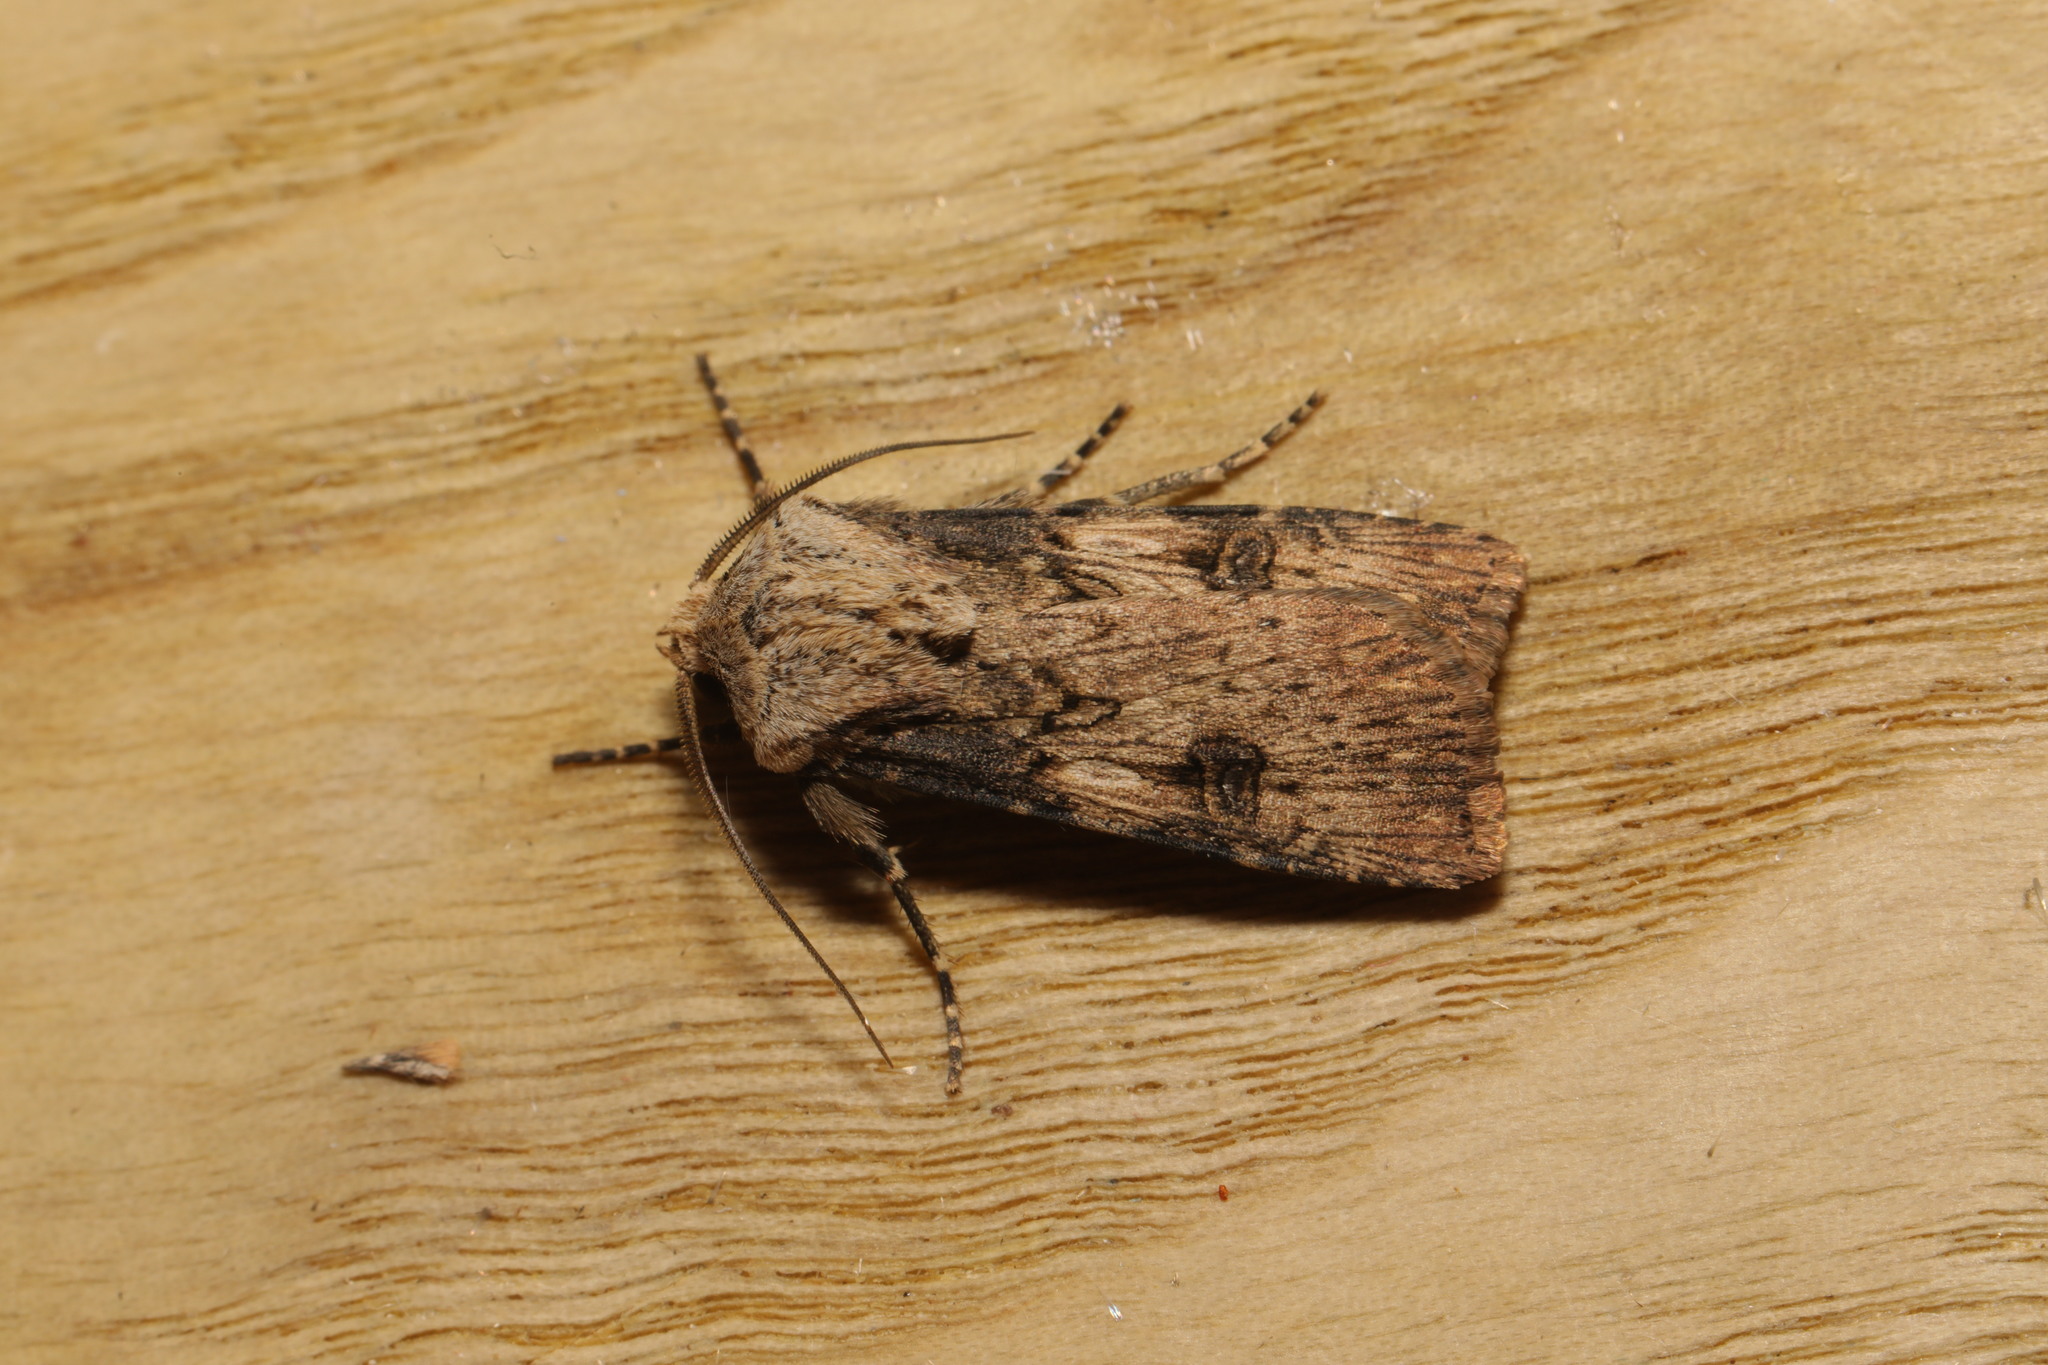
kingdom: Animalia
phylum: Arthropoda
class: Insecta
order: Lepidoptera
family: Noctuidae
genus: Agrotis
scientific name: Agrotis puta
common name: Shuttle-shaped dart
